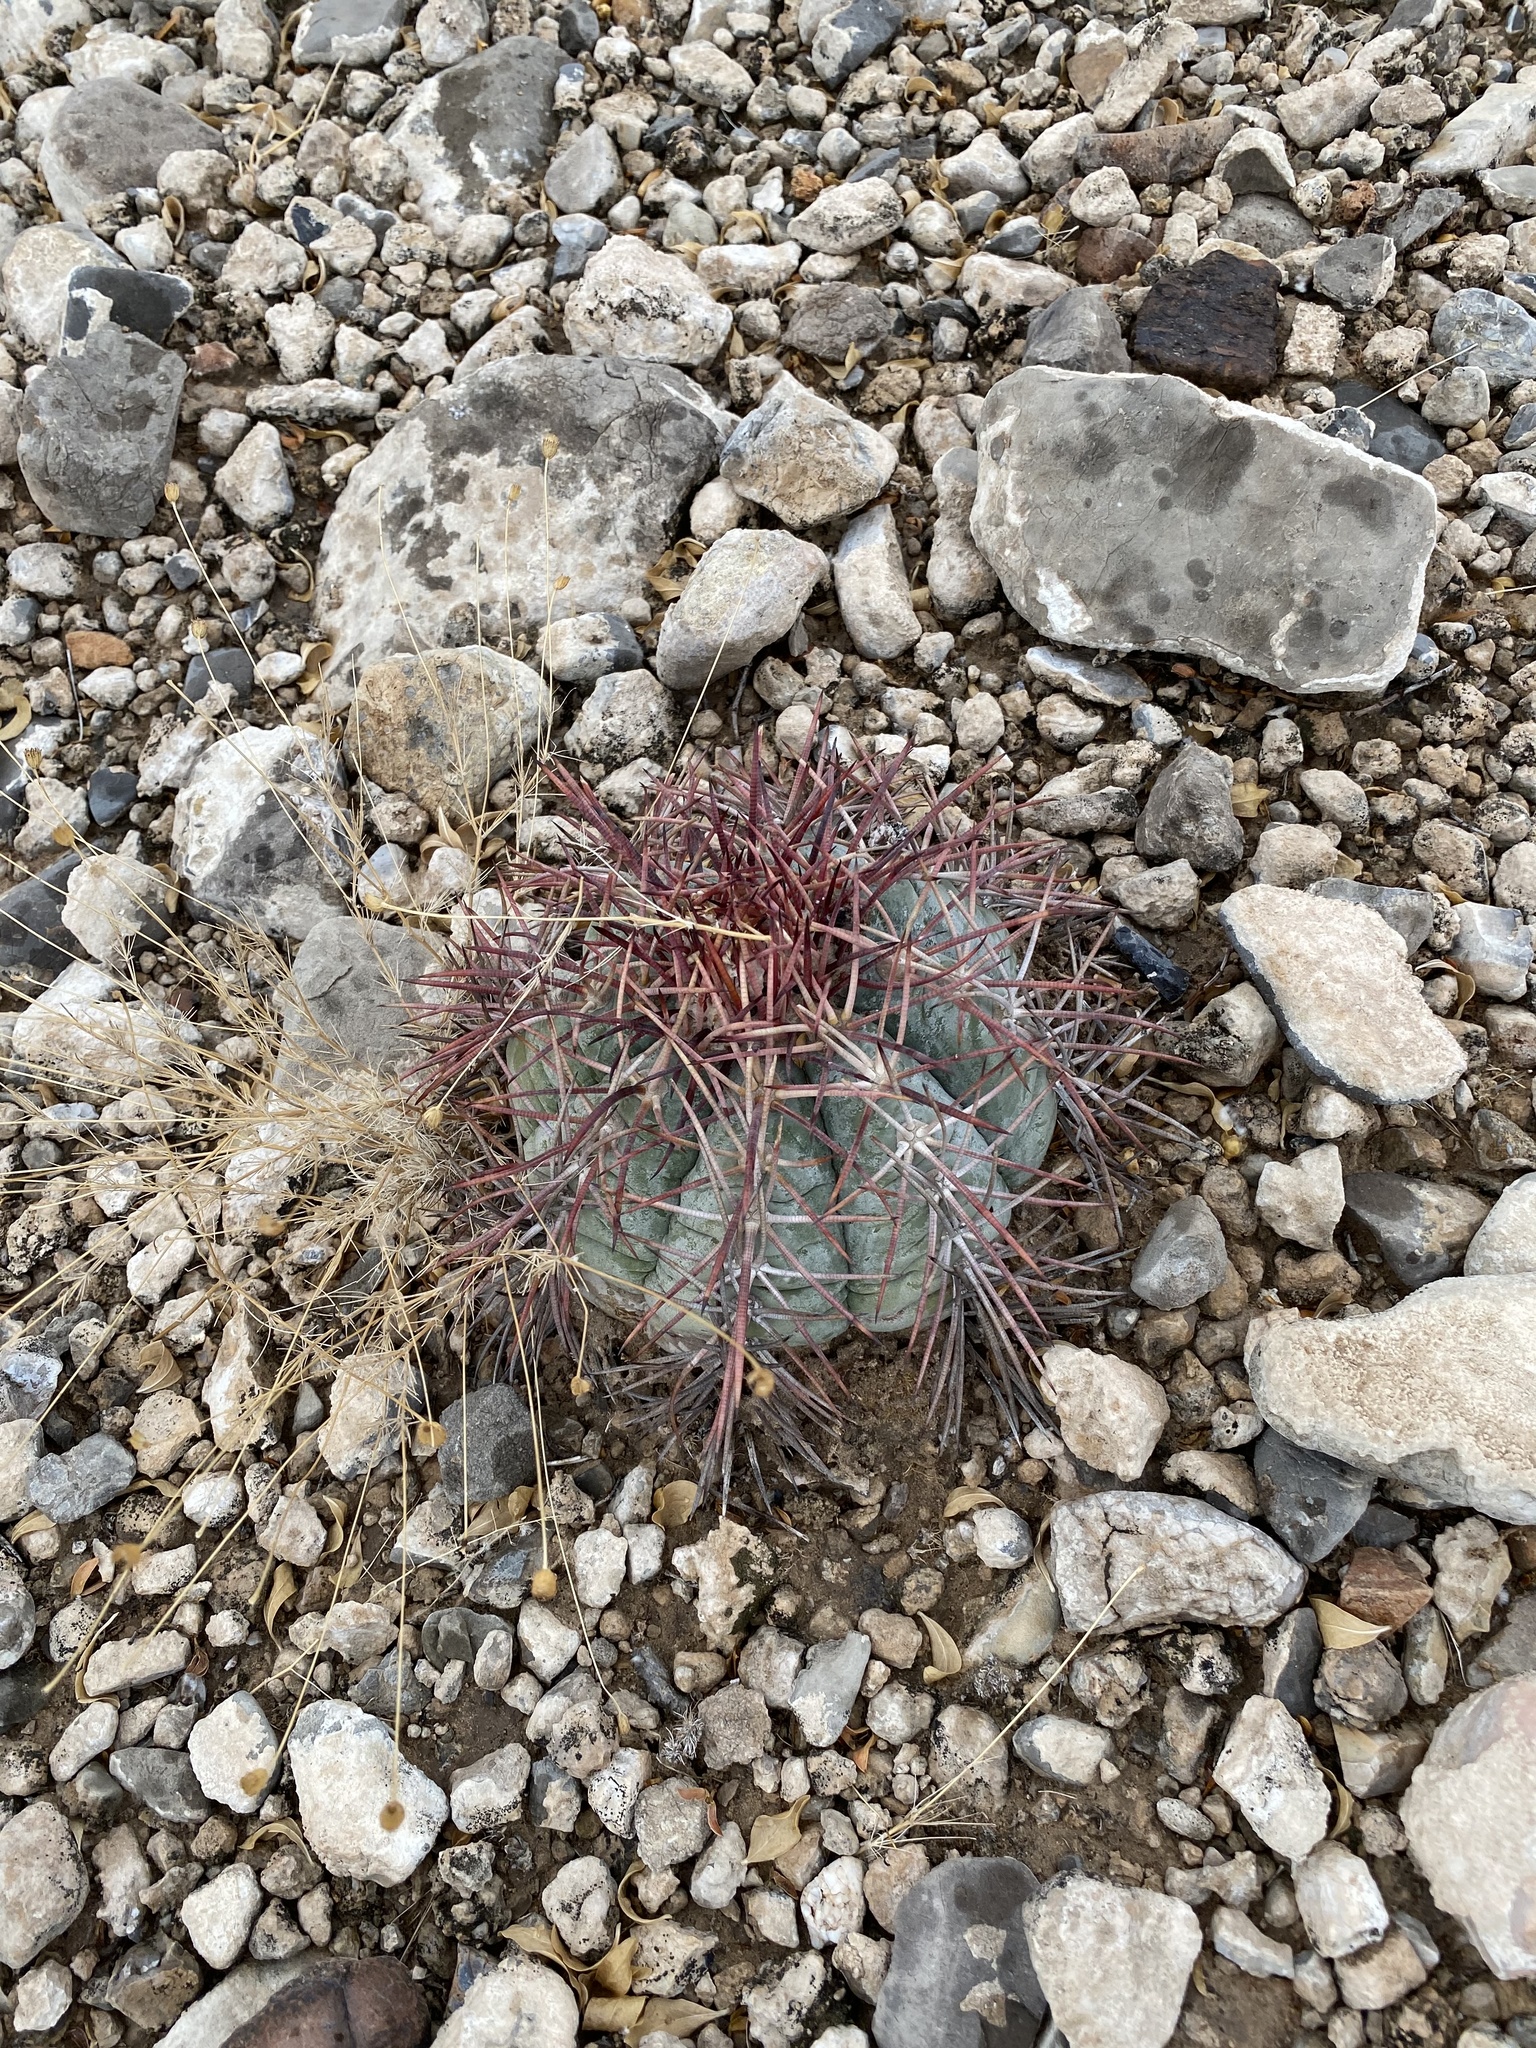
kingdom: Plantae
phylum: Tracheophyta
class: Magnoliopsida
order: Caryophyllales
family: Cactaceae
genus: Echinocactus
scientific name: Echinocactus horizonthalonius
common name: Devilshead
